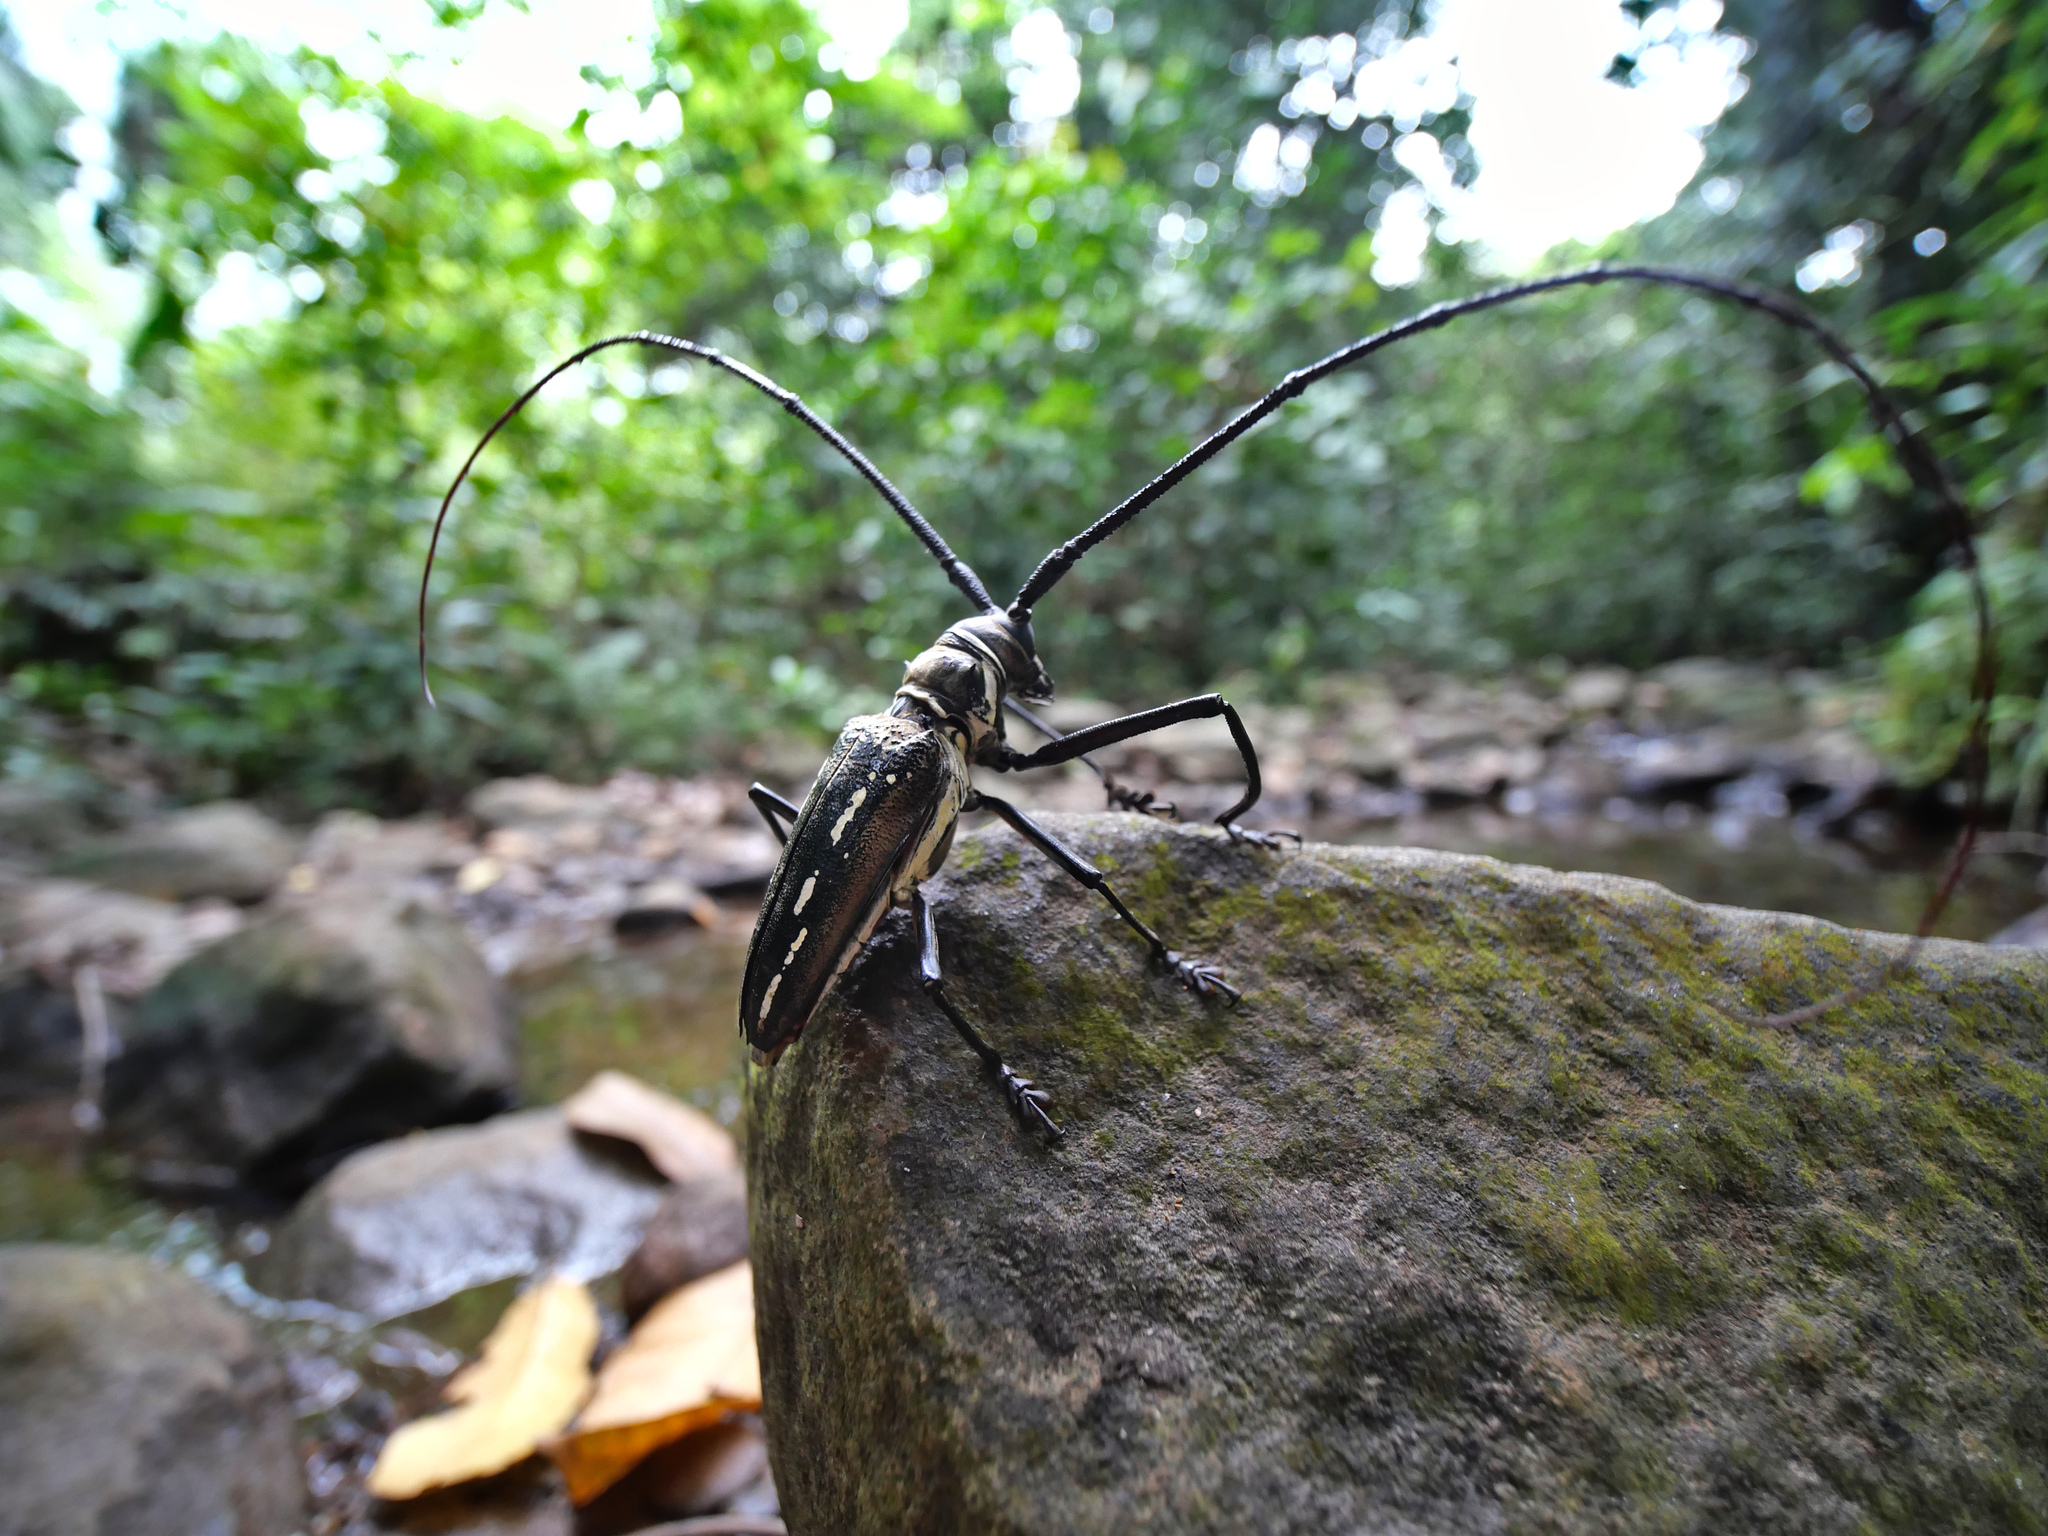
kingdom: Animalia
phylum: Arthropoda
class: Insecta
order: Coleoptera
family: Cerambycidae
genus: Batocera
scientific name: Batocera wallacei
